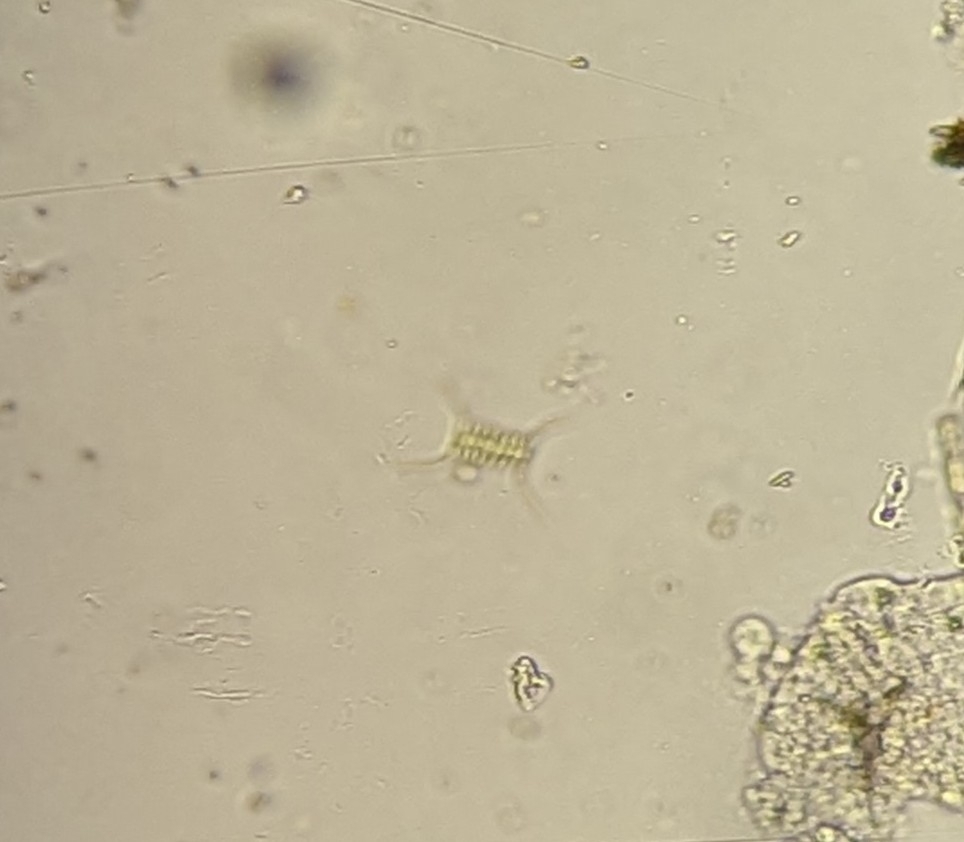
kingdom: Plantae
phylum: Chlorophyta
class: Chlorophyceae
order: Sphaeropleales
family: Scenedesmaceae
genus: Desmodesmus
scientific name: Desmodesmus
